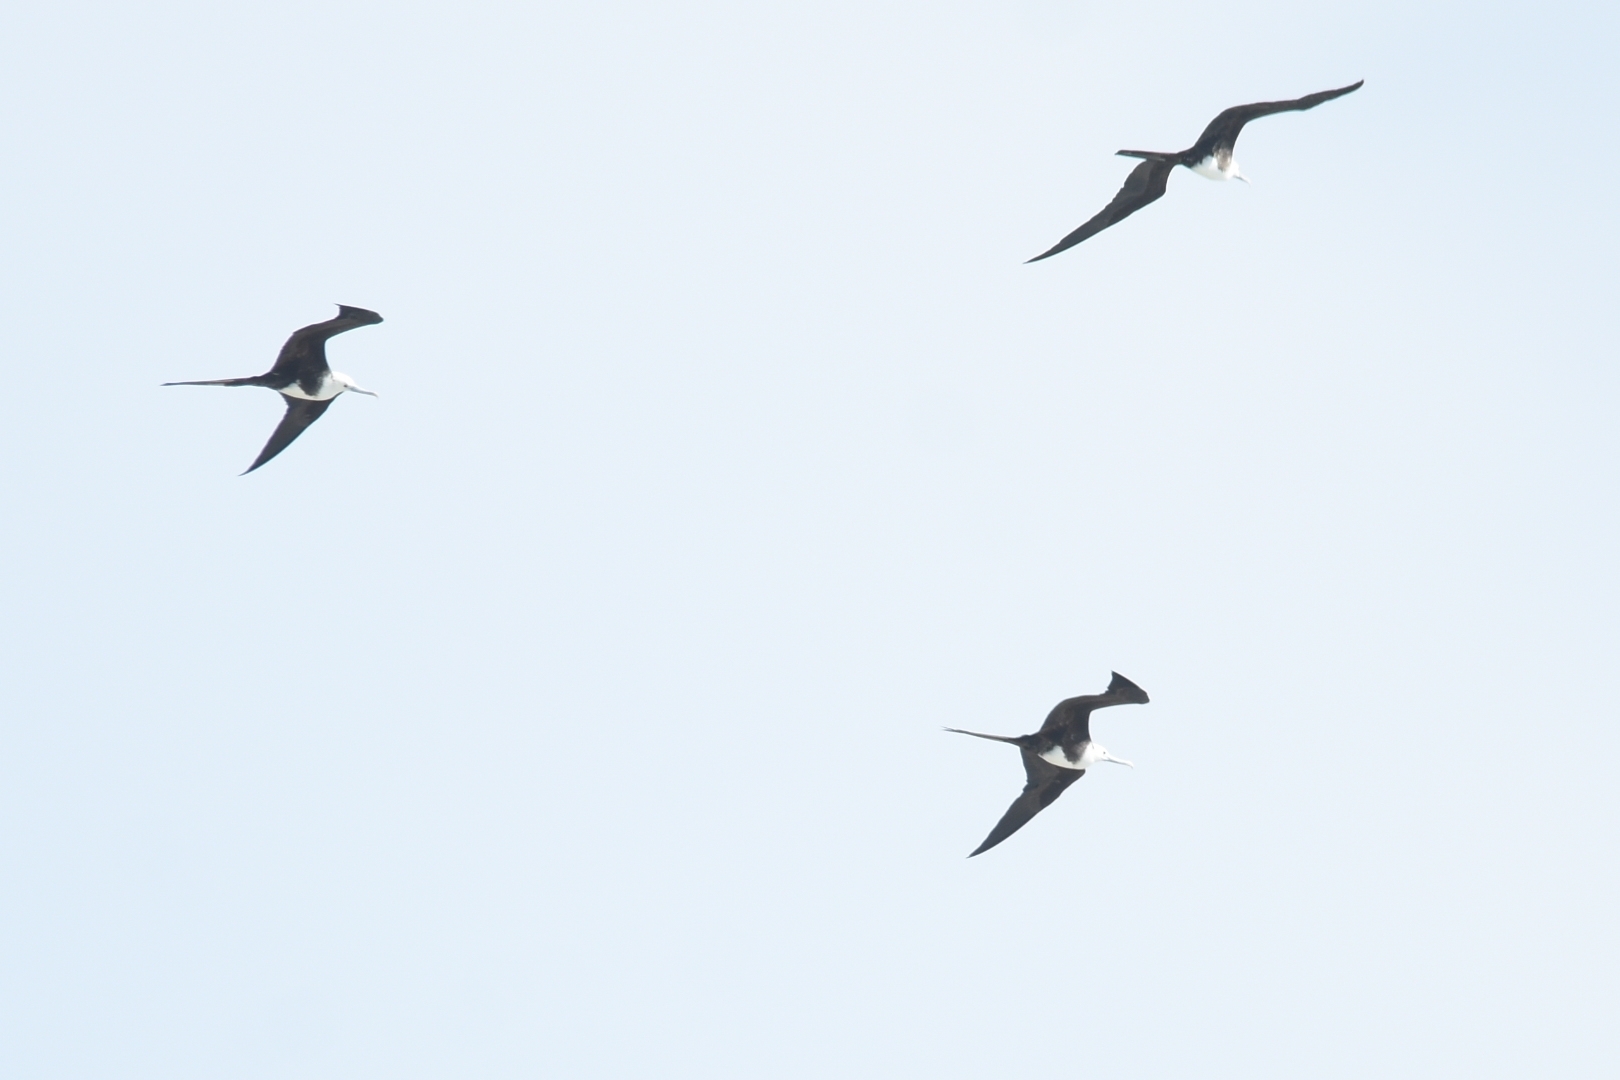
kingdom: Animalia
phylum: Chordata
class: Aves
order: Suliformes
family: Fregatidae
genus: Fregata
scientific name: Fregata magnificens
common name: Magnificent frigatebird
